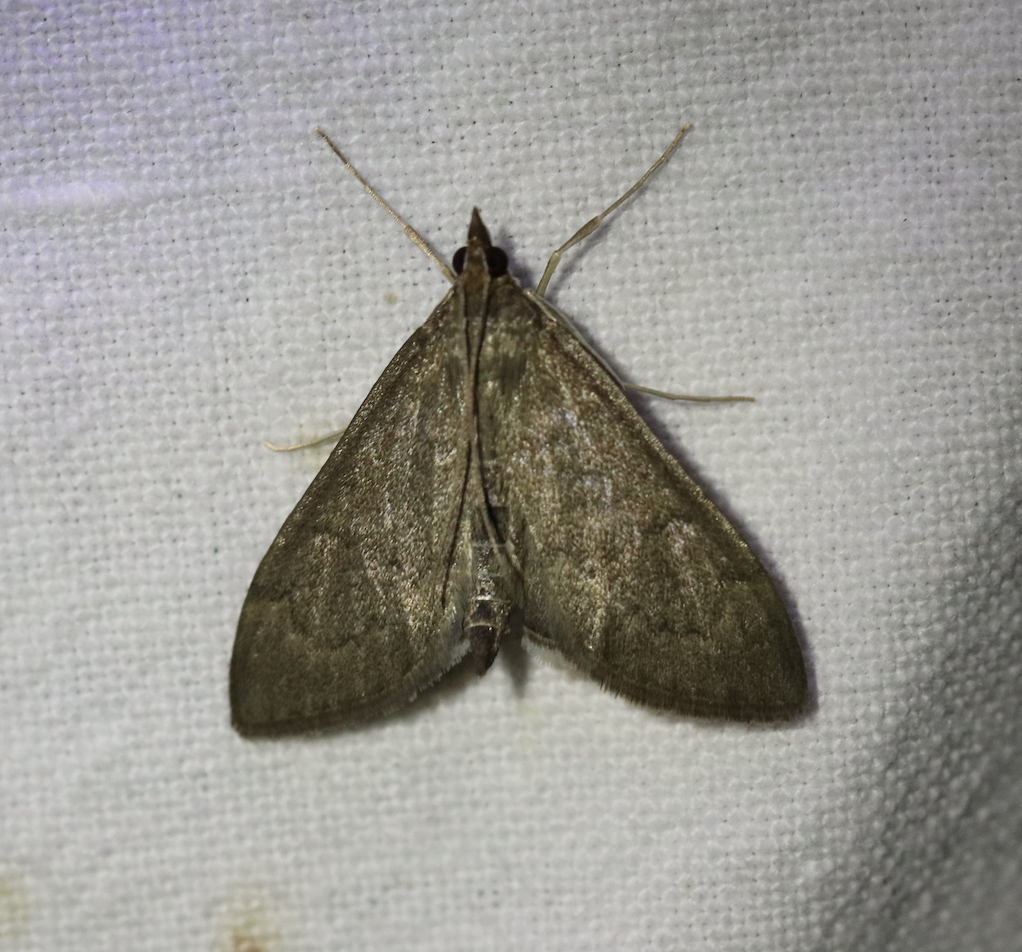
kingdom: Animalia
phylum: Arthropoda
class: Insecta
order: Lepidoptera
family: Crambidae
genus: Anania
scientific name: Anania terrealis
